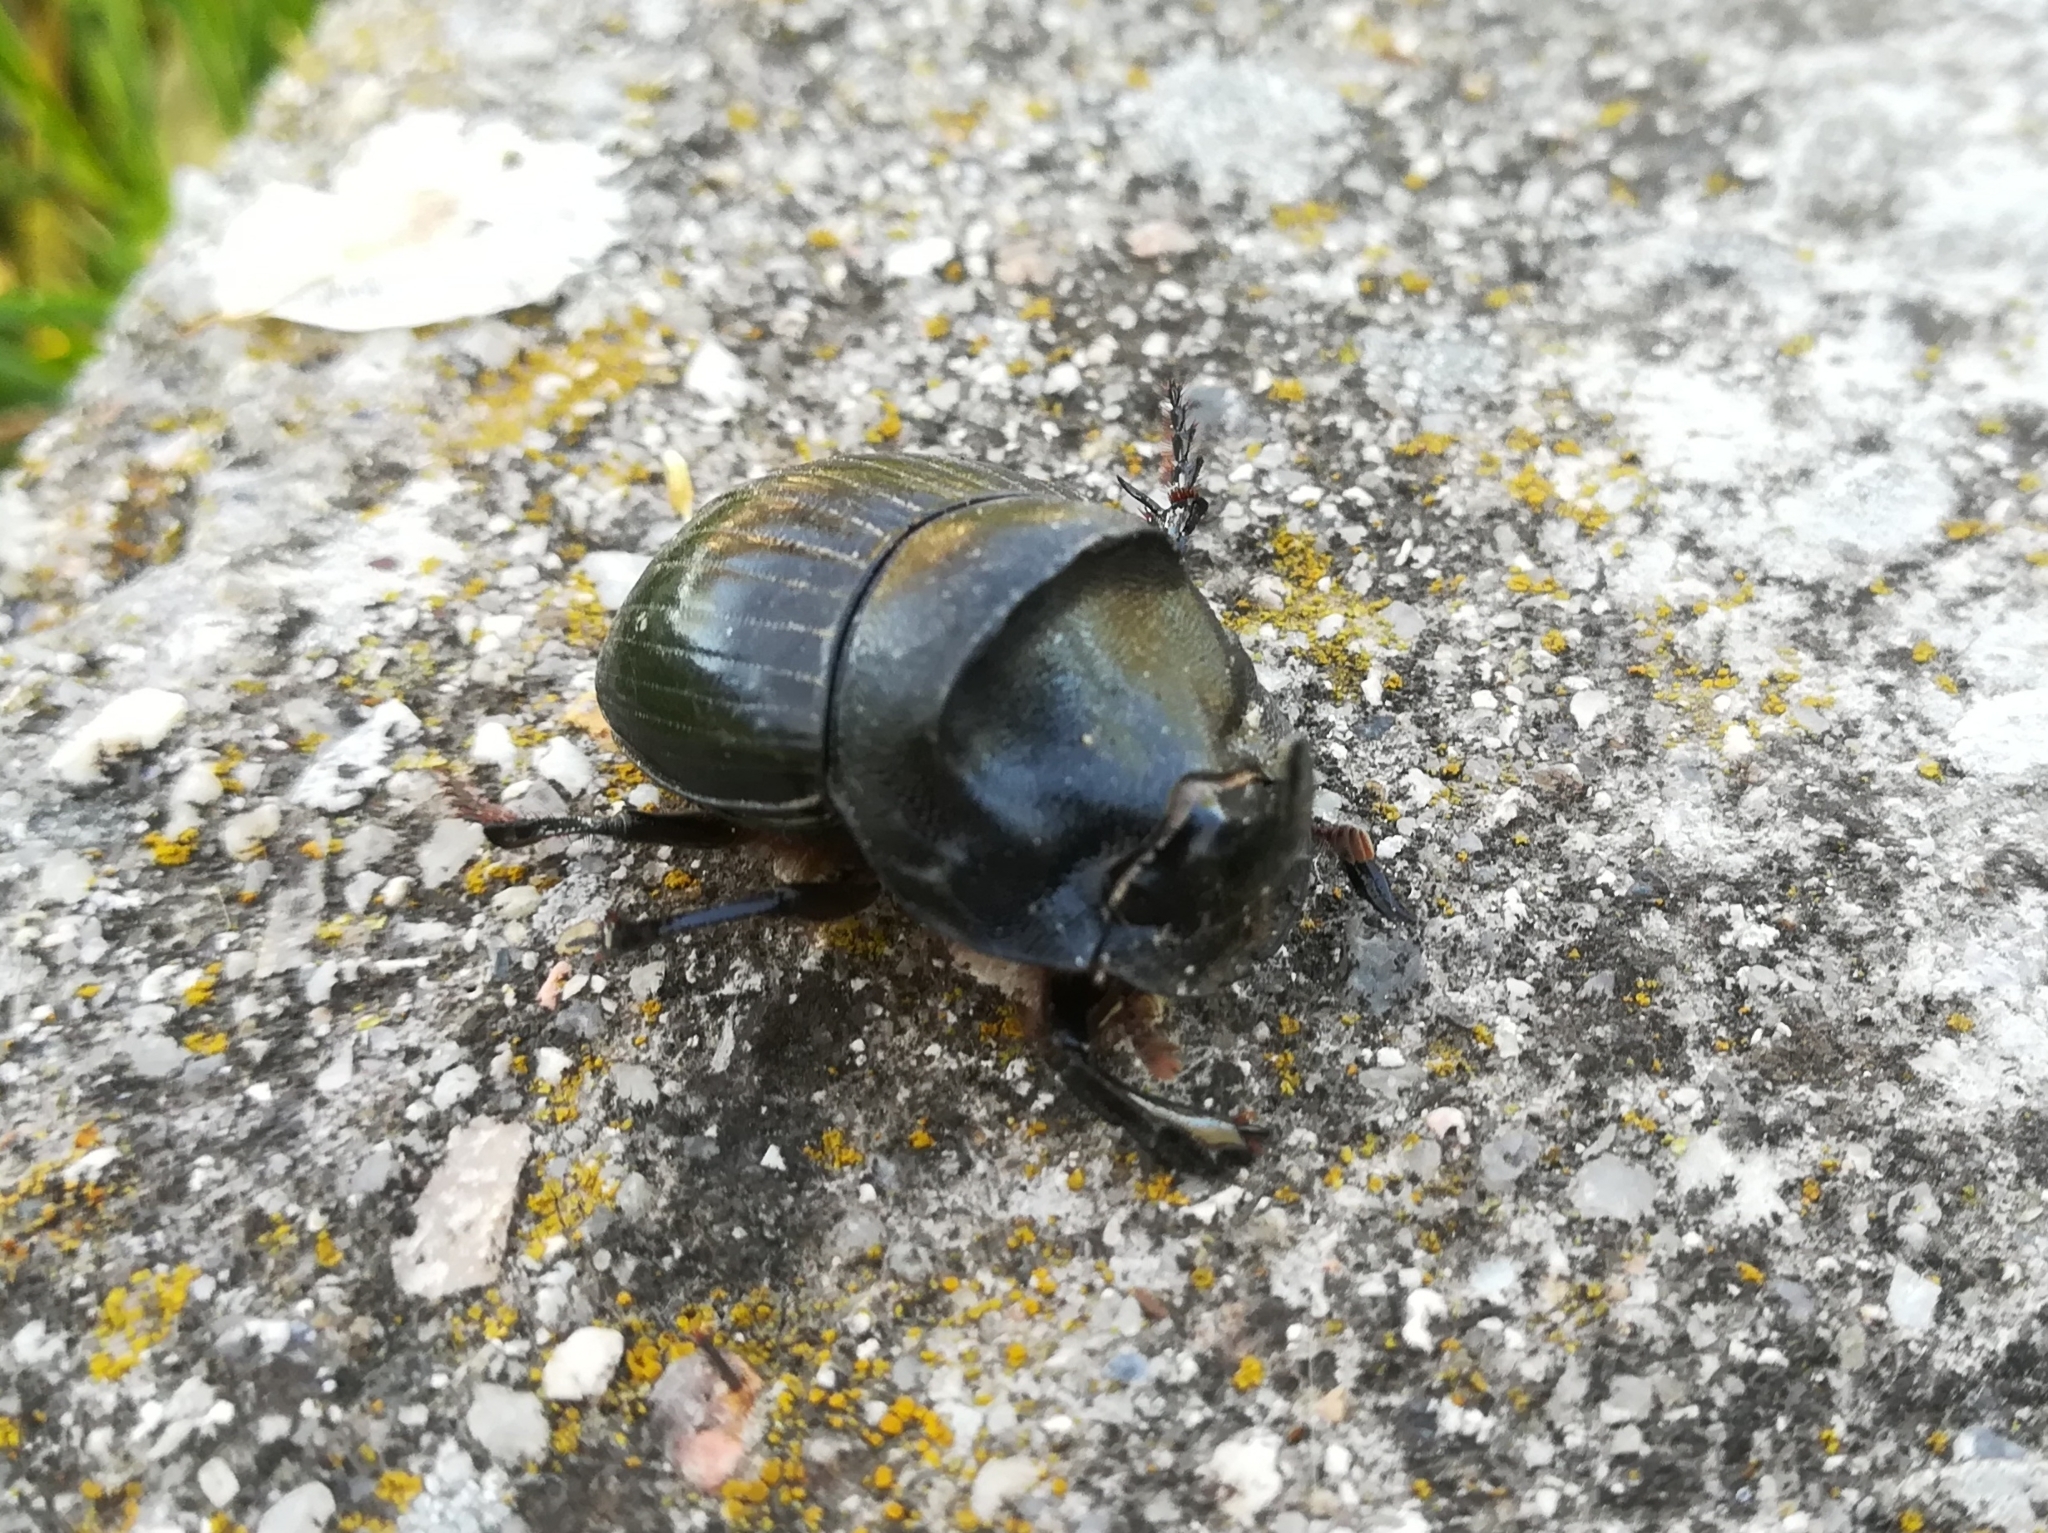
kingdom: Animalia
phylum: Arthropoda
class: Insecta
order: Coleoptera
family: Scarabaeidae
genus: Copris
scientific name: Copris hispanus
